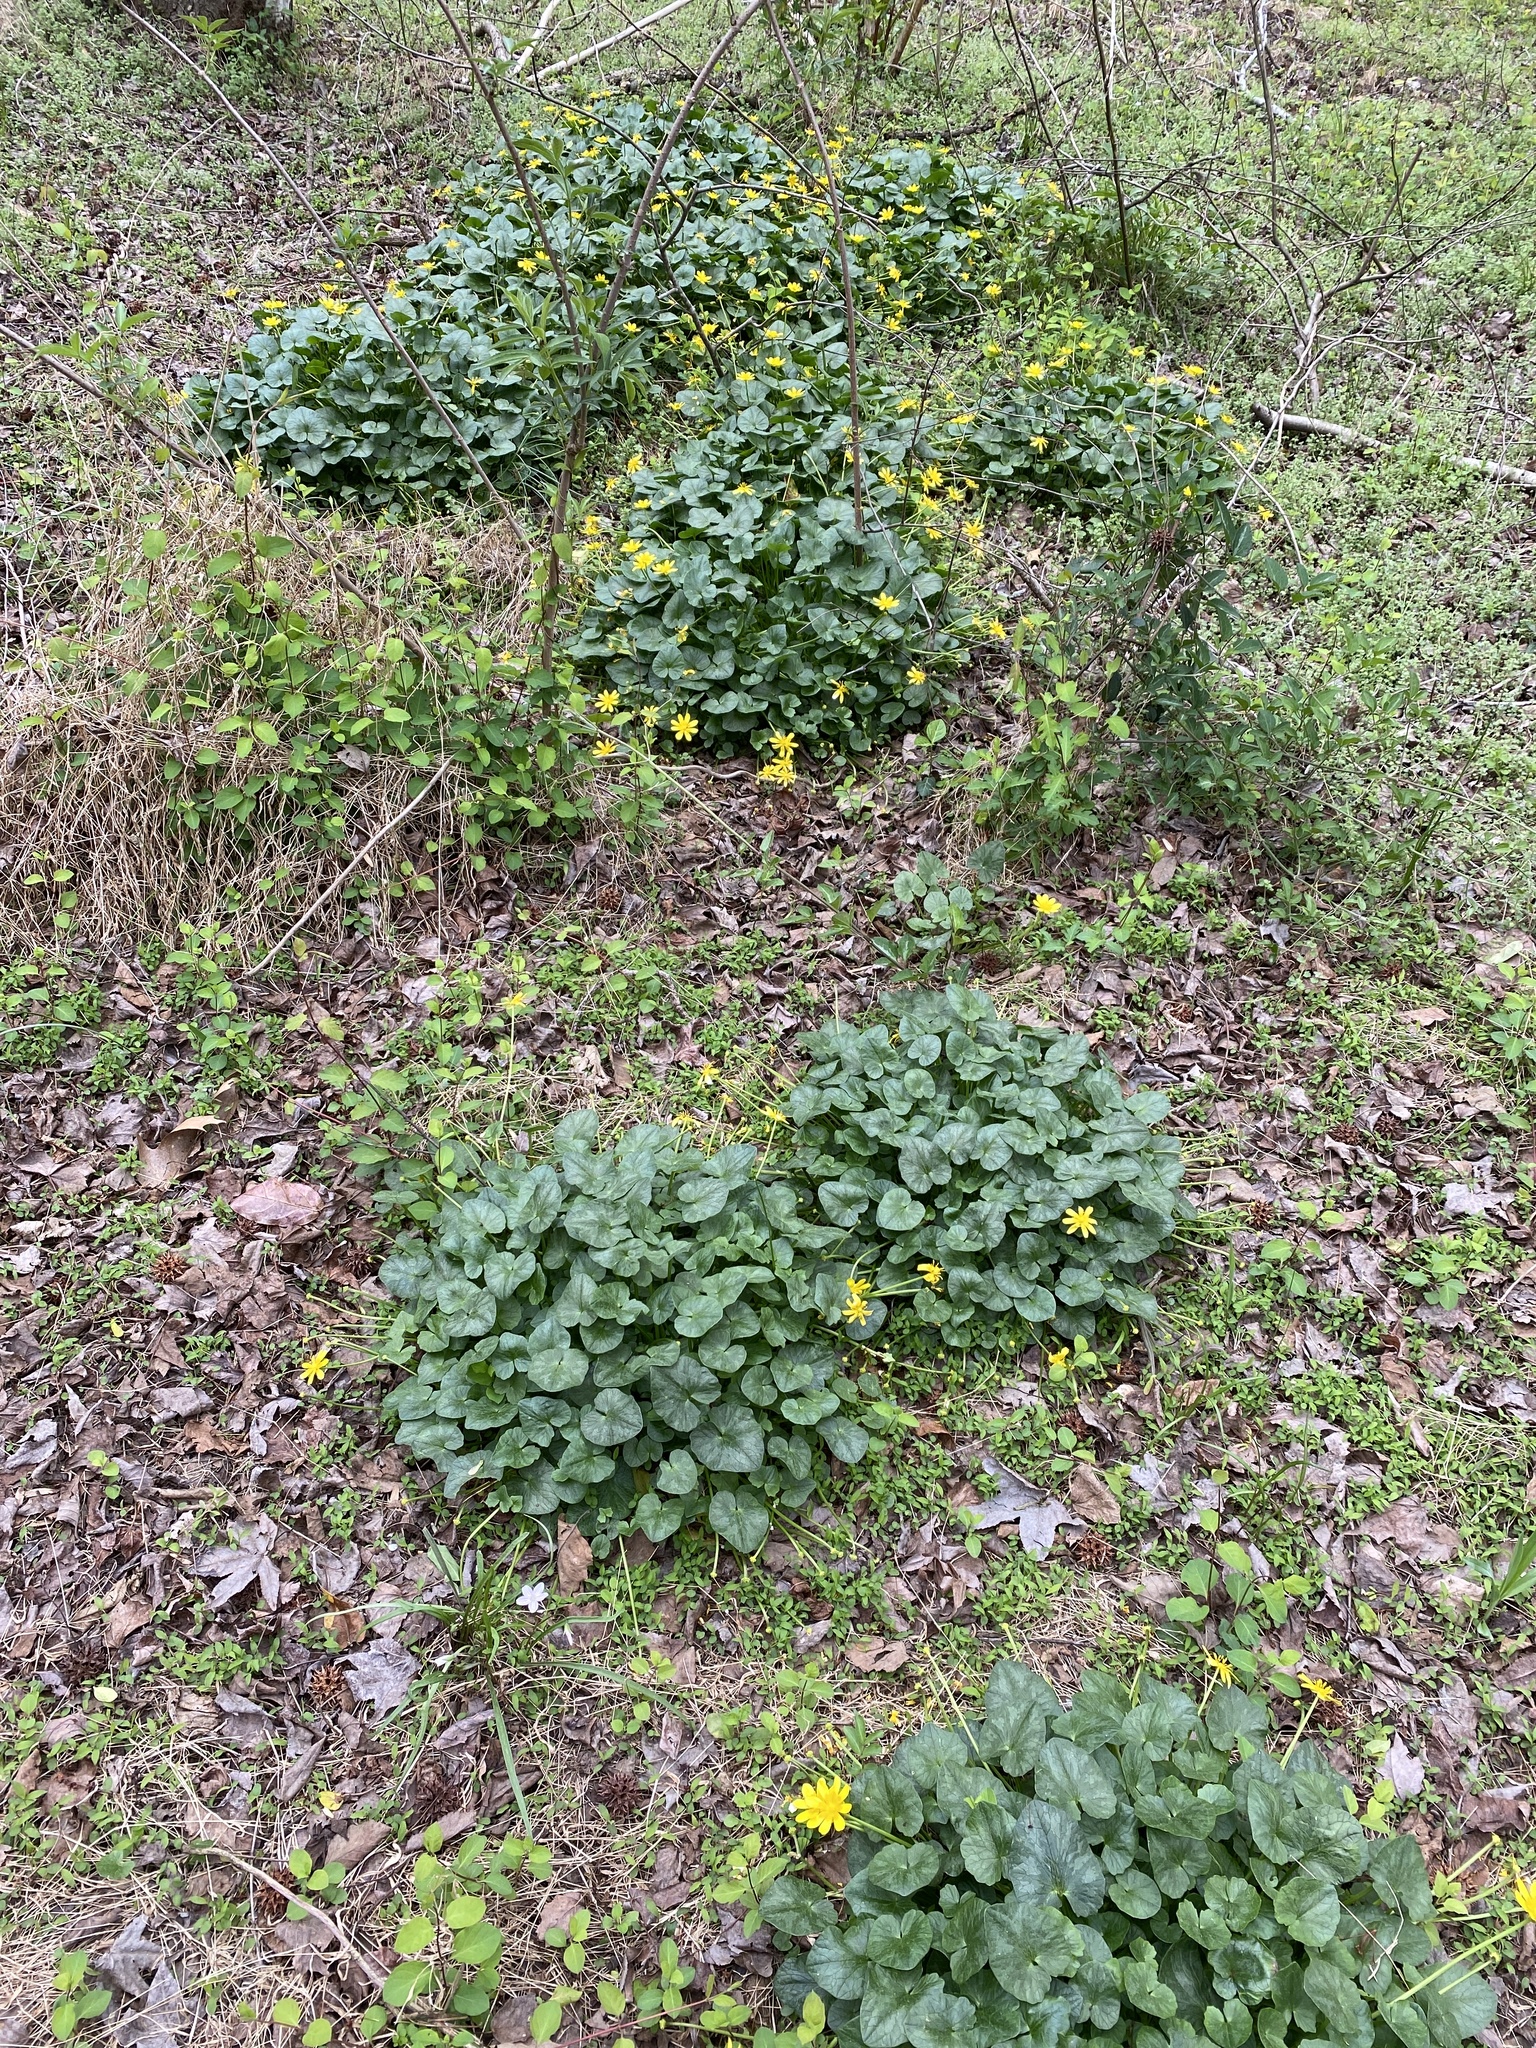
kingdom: Plantae
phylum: Tracheophyta
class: Magnoliopsida
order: Ranunculales
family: Ranunculaceae
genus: Ficaria
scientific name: Ficaria verna
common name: Lesser celandine
